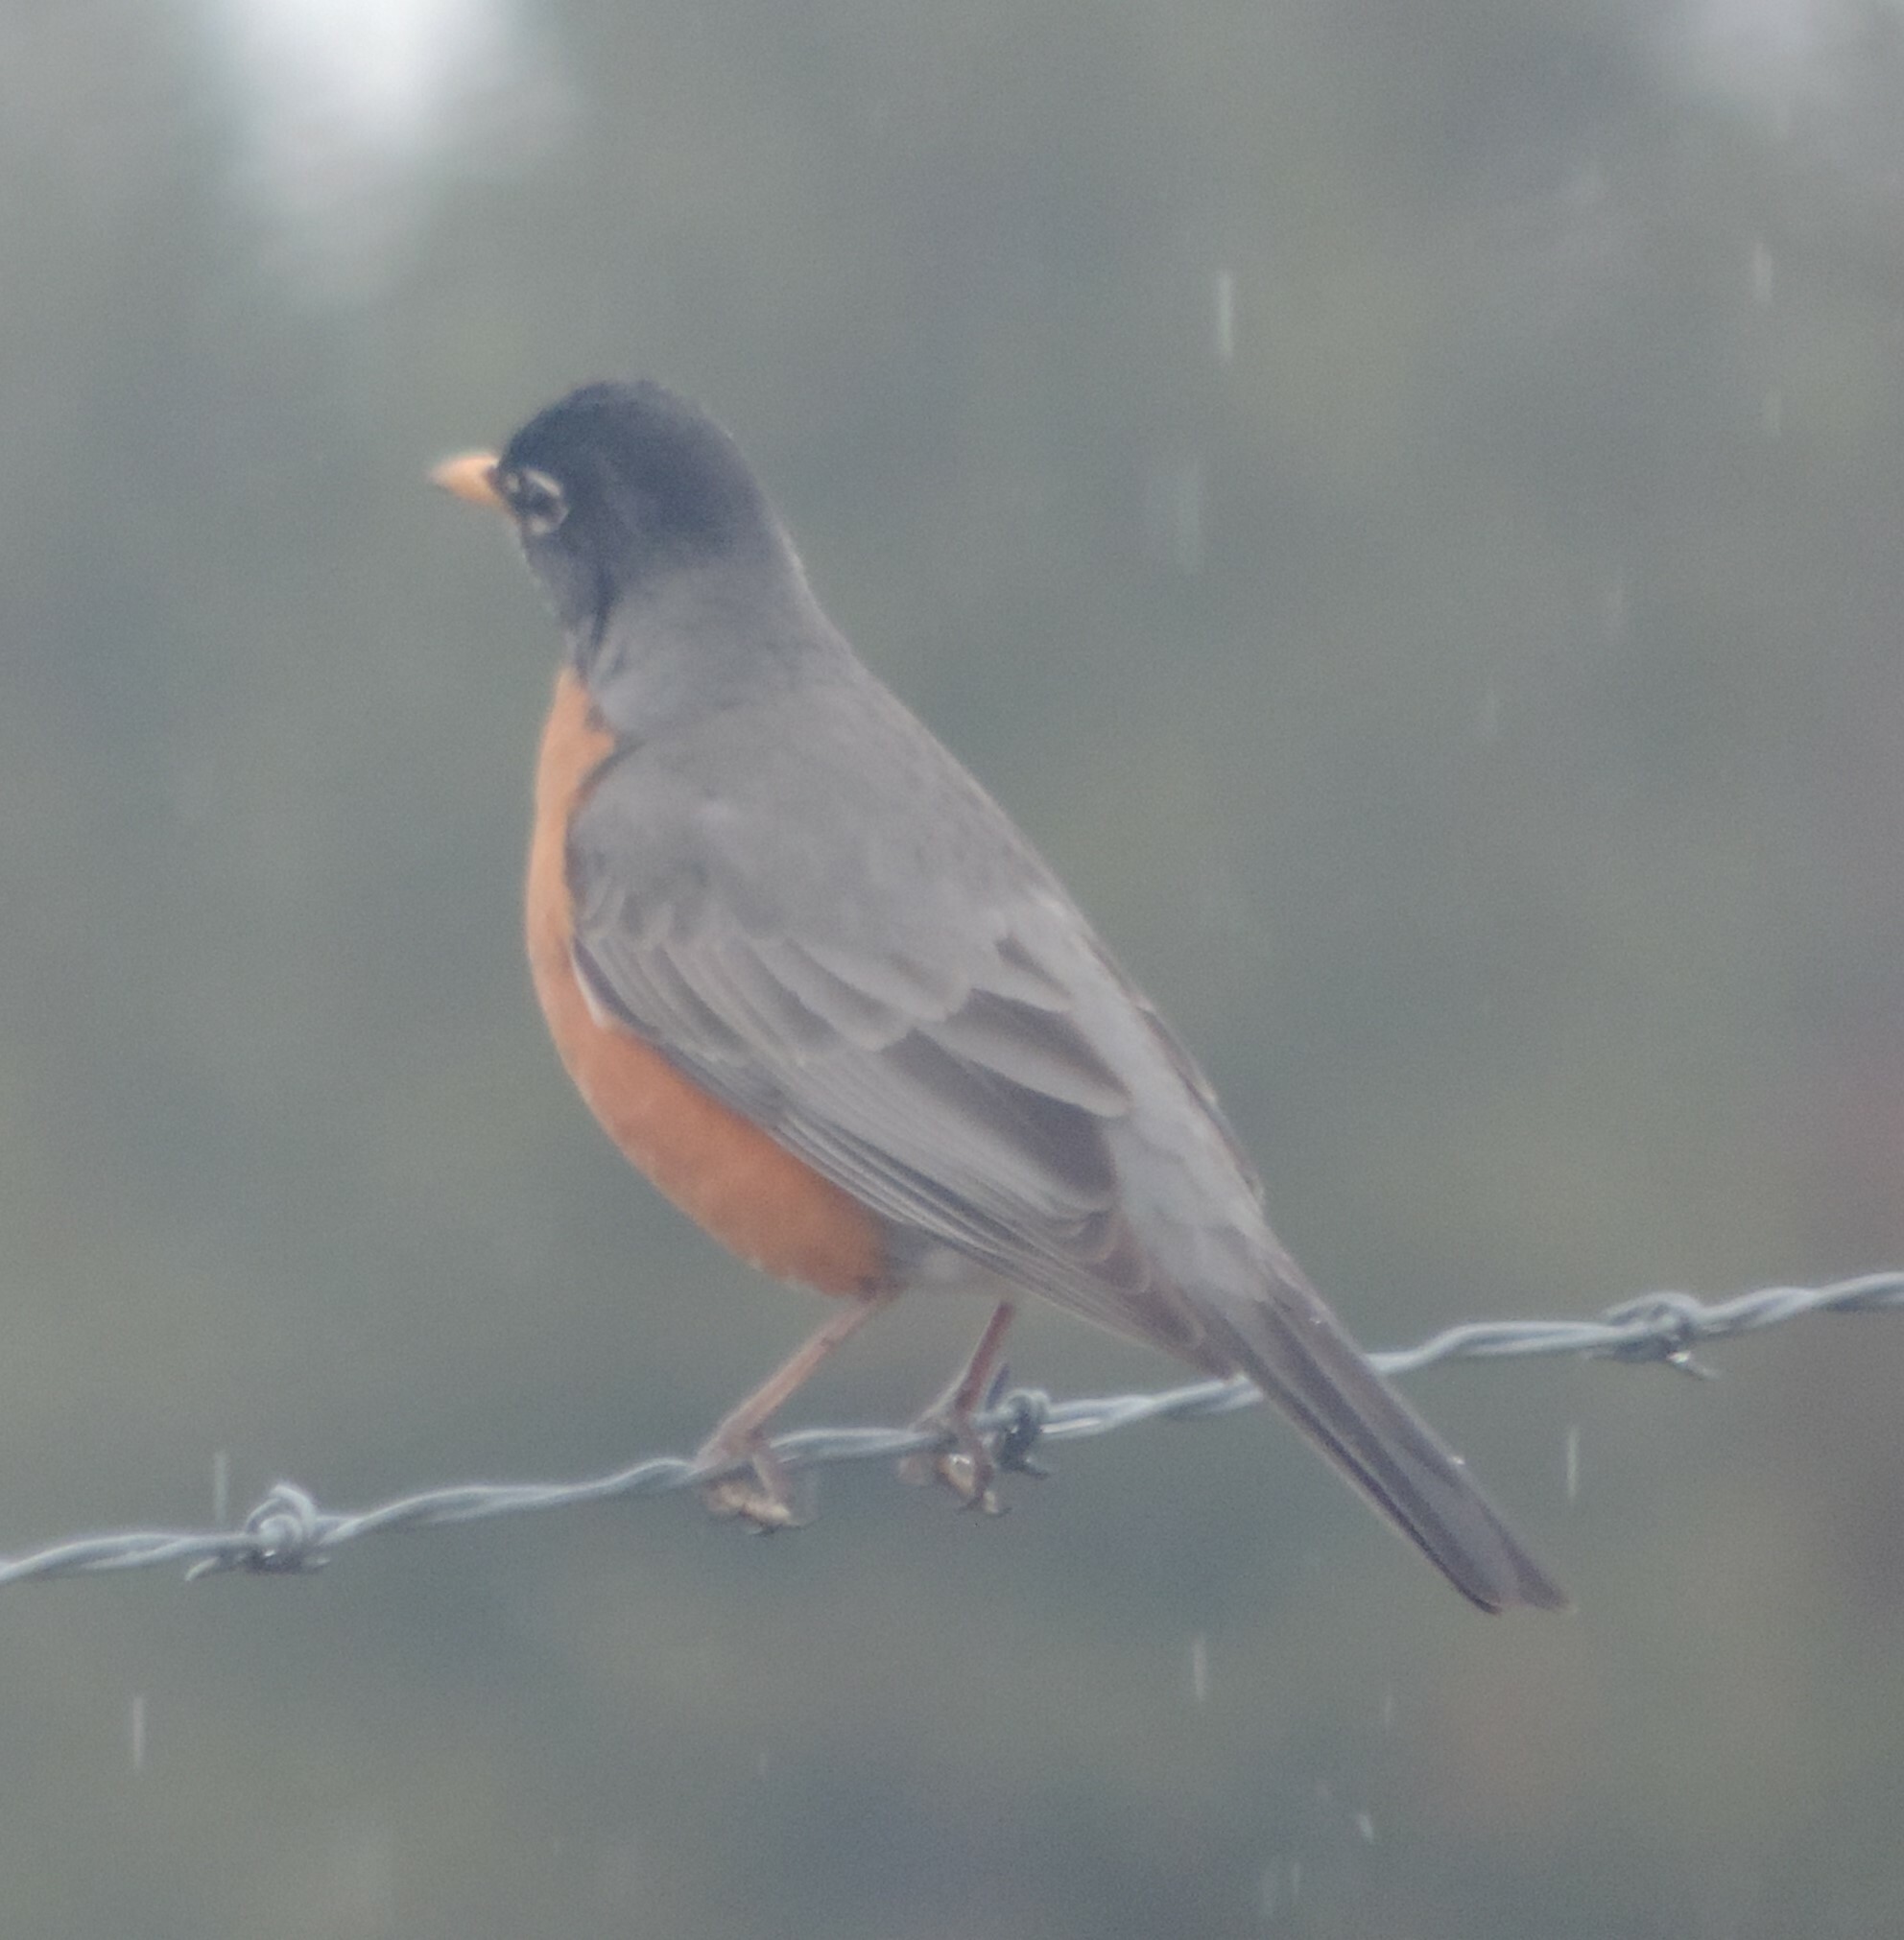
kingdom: Animalia
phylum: Chordata
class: Aves
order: Passeriformes
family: Turdidae
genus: Turdus
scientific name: Turdus migratorius
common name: American robin
